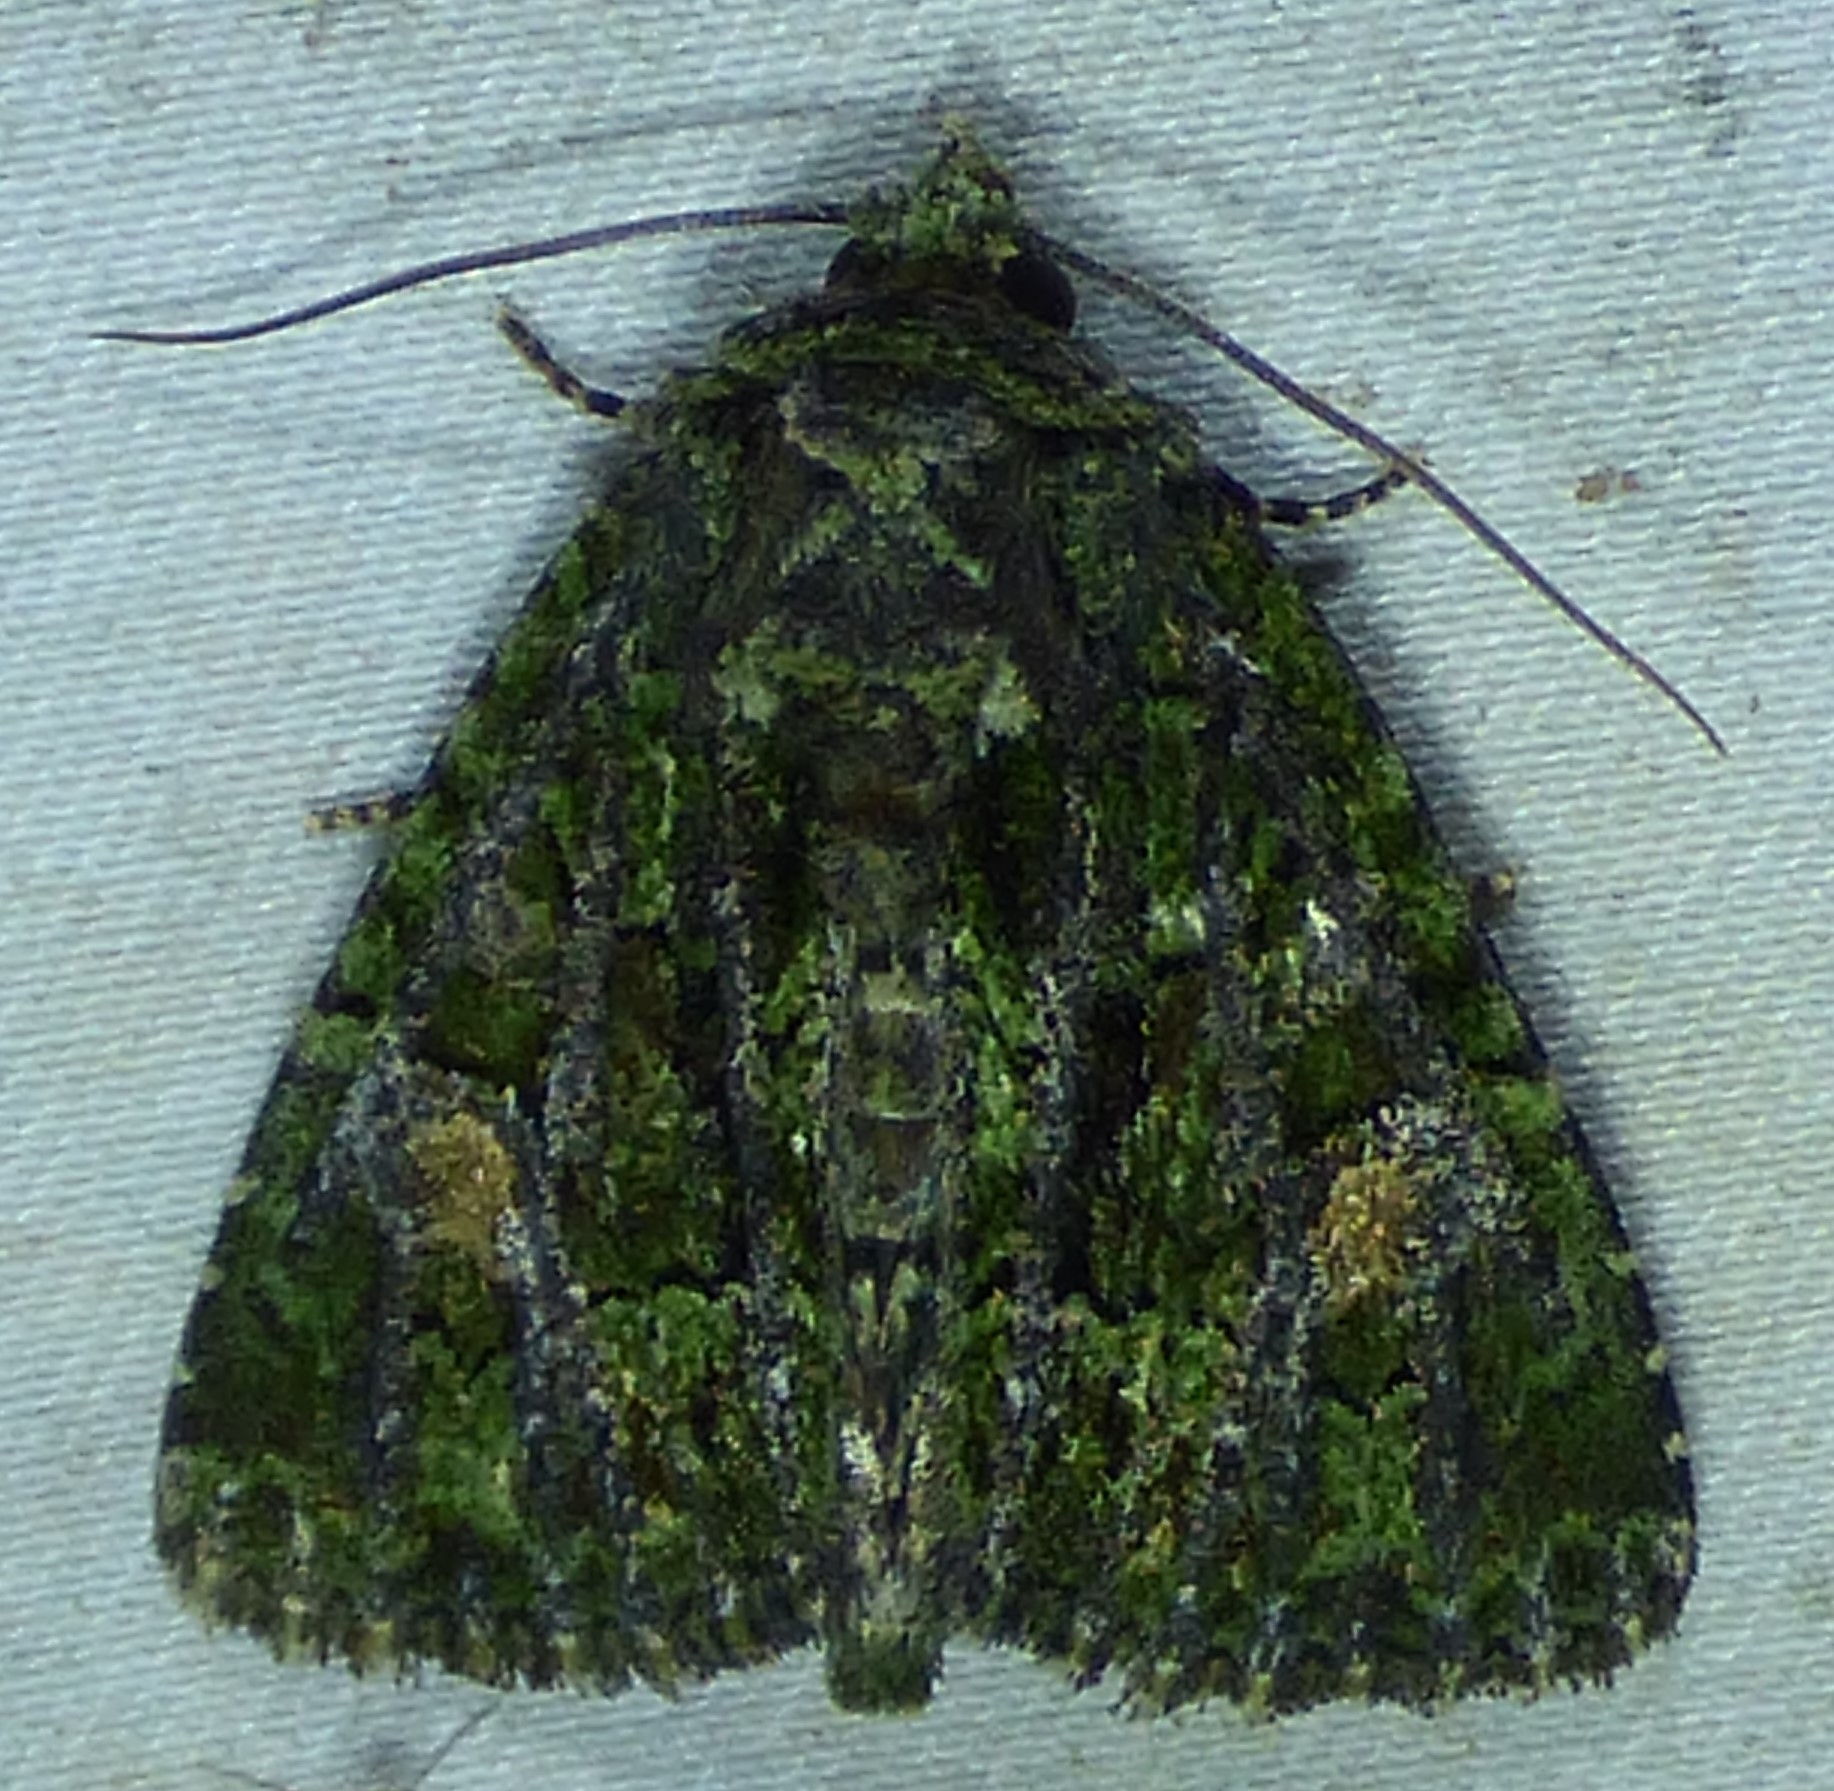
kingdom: Animalia
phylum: Arthropoda
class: Insecta
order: Lepidoptera
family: Noctuidae
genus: Phosphila
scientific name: Phosphila miselioides
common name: Spotted phosphila moth
